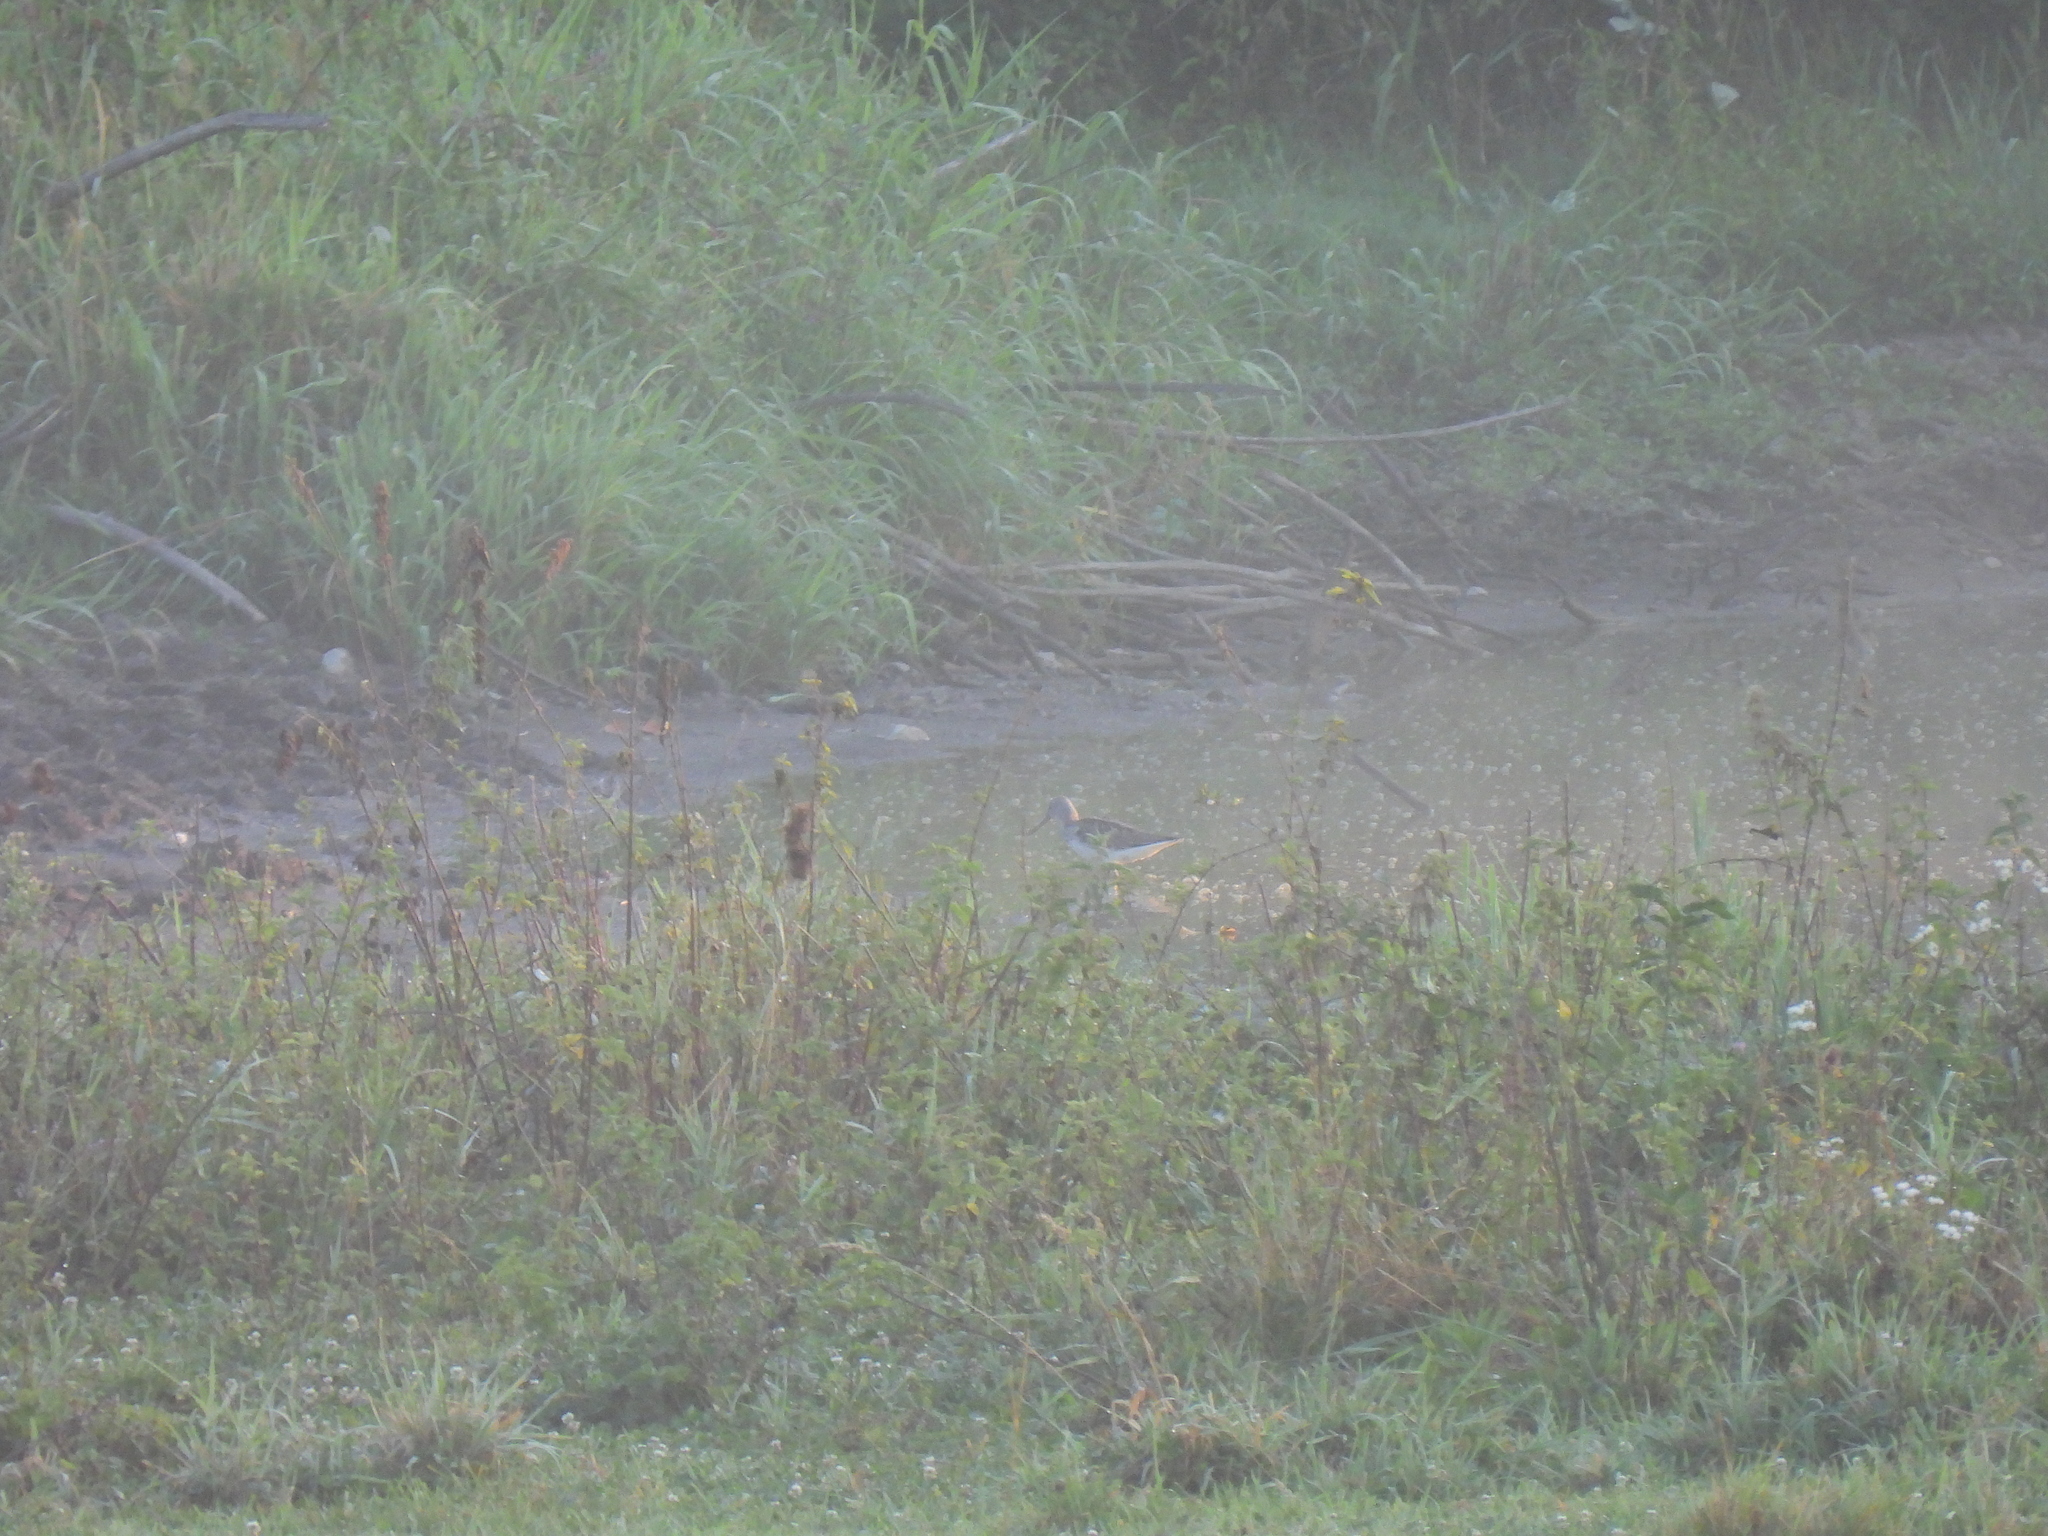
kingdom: Animalia
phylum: Chordata
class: Aves
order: Charadriiformes
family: Scolopacidae
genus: Tringa
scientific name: Tringa nebularia
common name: Common greenshank
